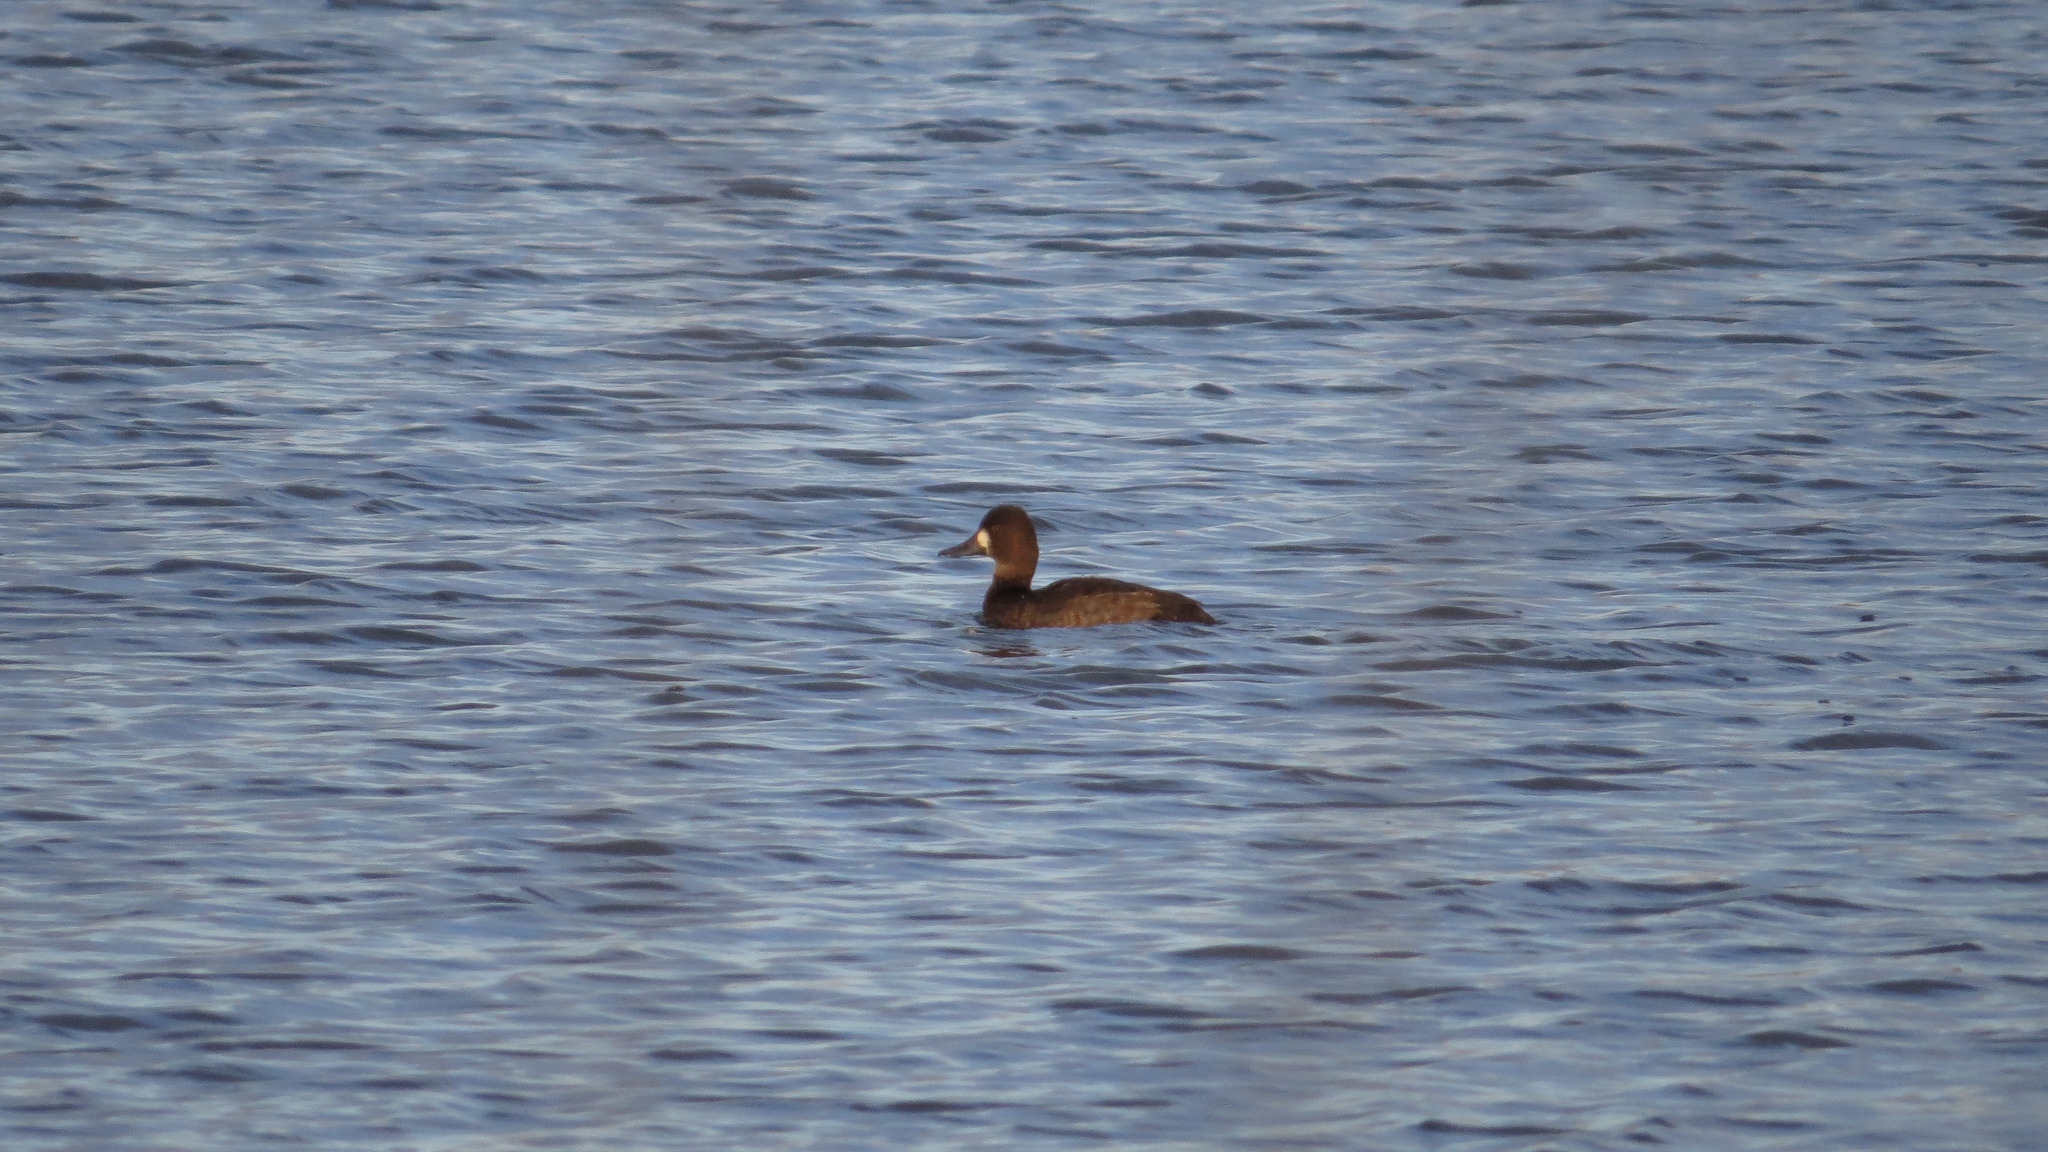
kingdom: Animalia
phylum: Chordata
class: Aves
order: Anseriformes
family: Anatidae
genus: Aythya
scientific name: Aythya affinis
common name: Lesser scaup
